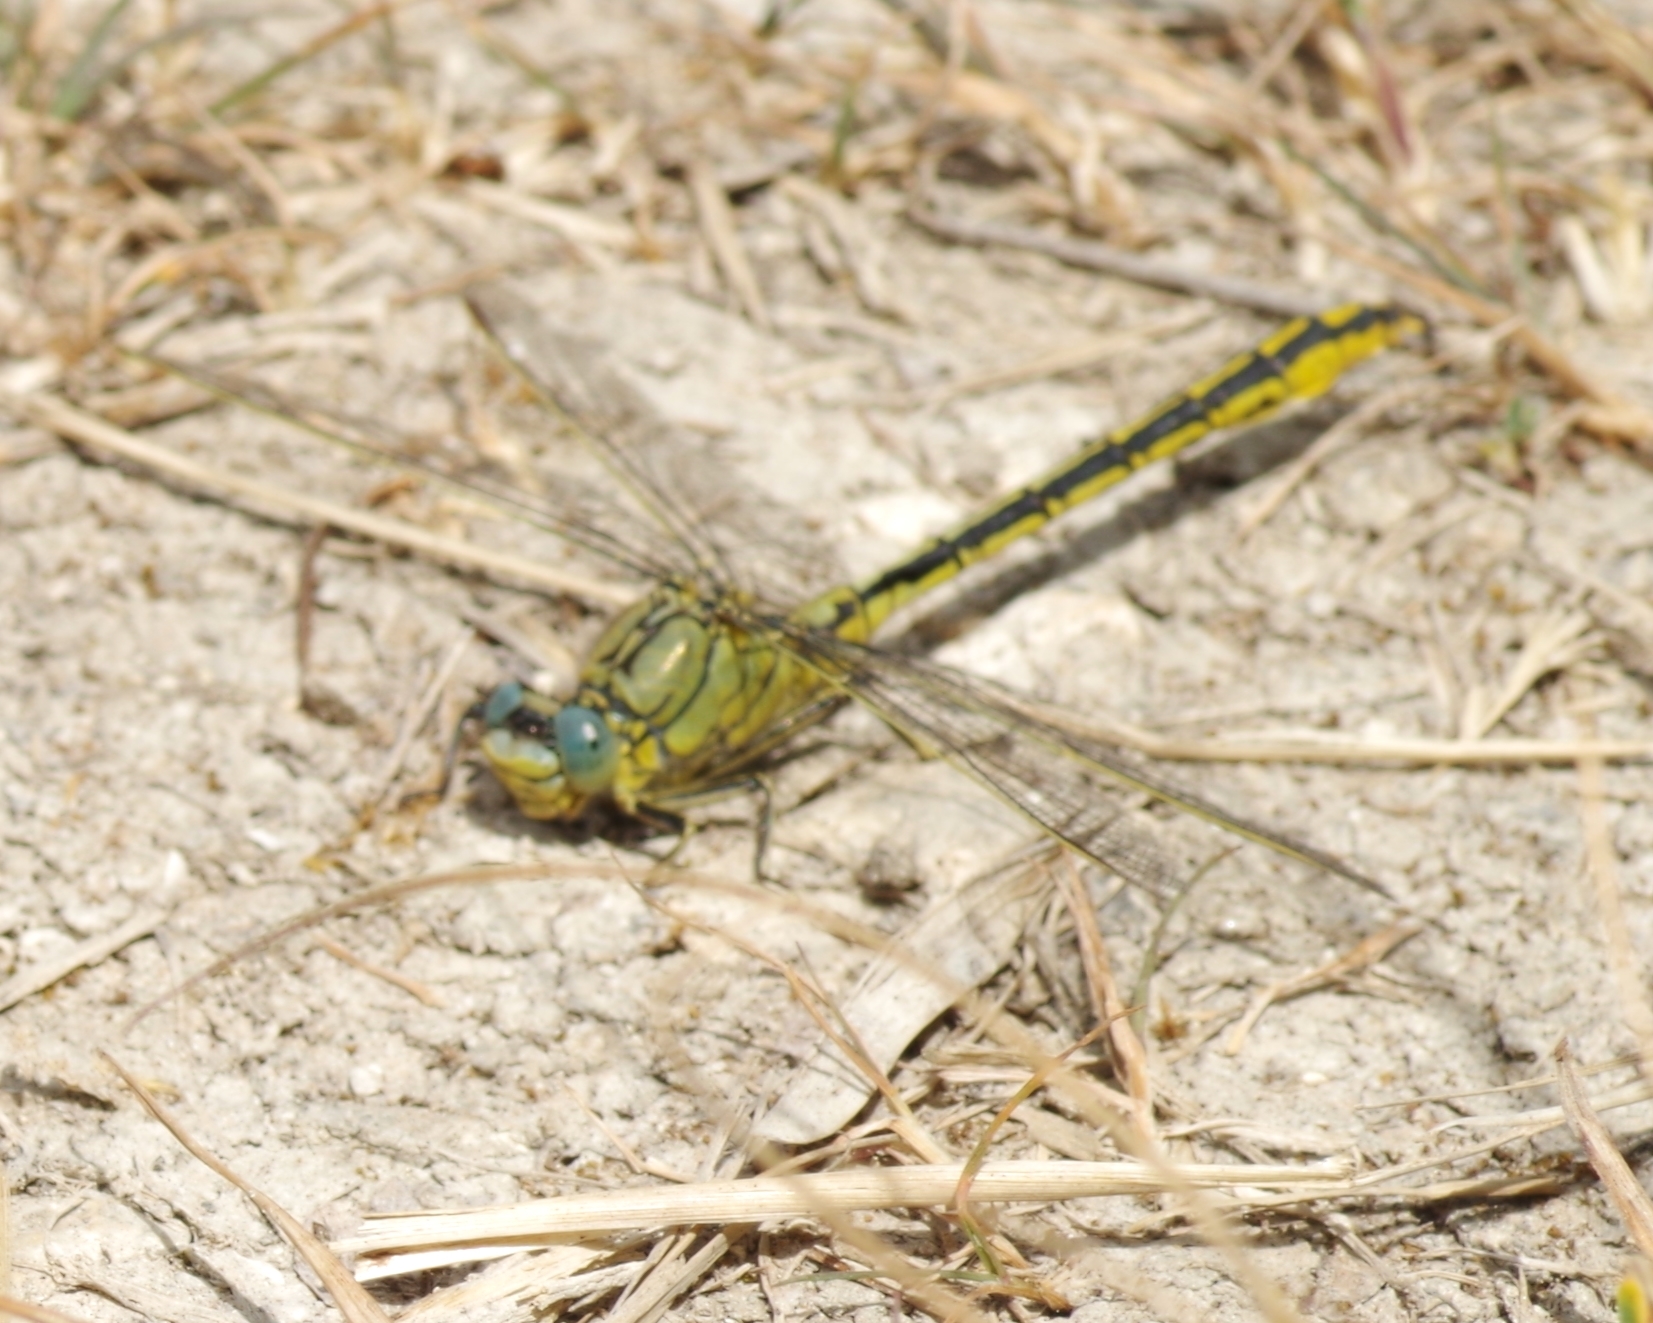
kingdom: Animalia
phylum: Arthropoda
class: Insecta
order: Odonata
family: Gomphidae
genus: Gomphus
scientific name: Gomphus pulchellus
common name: Western clubtail
